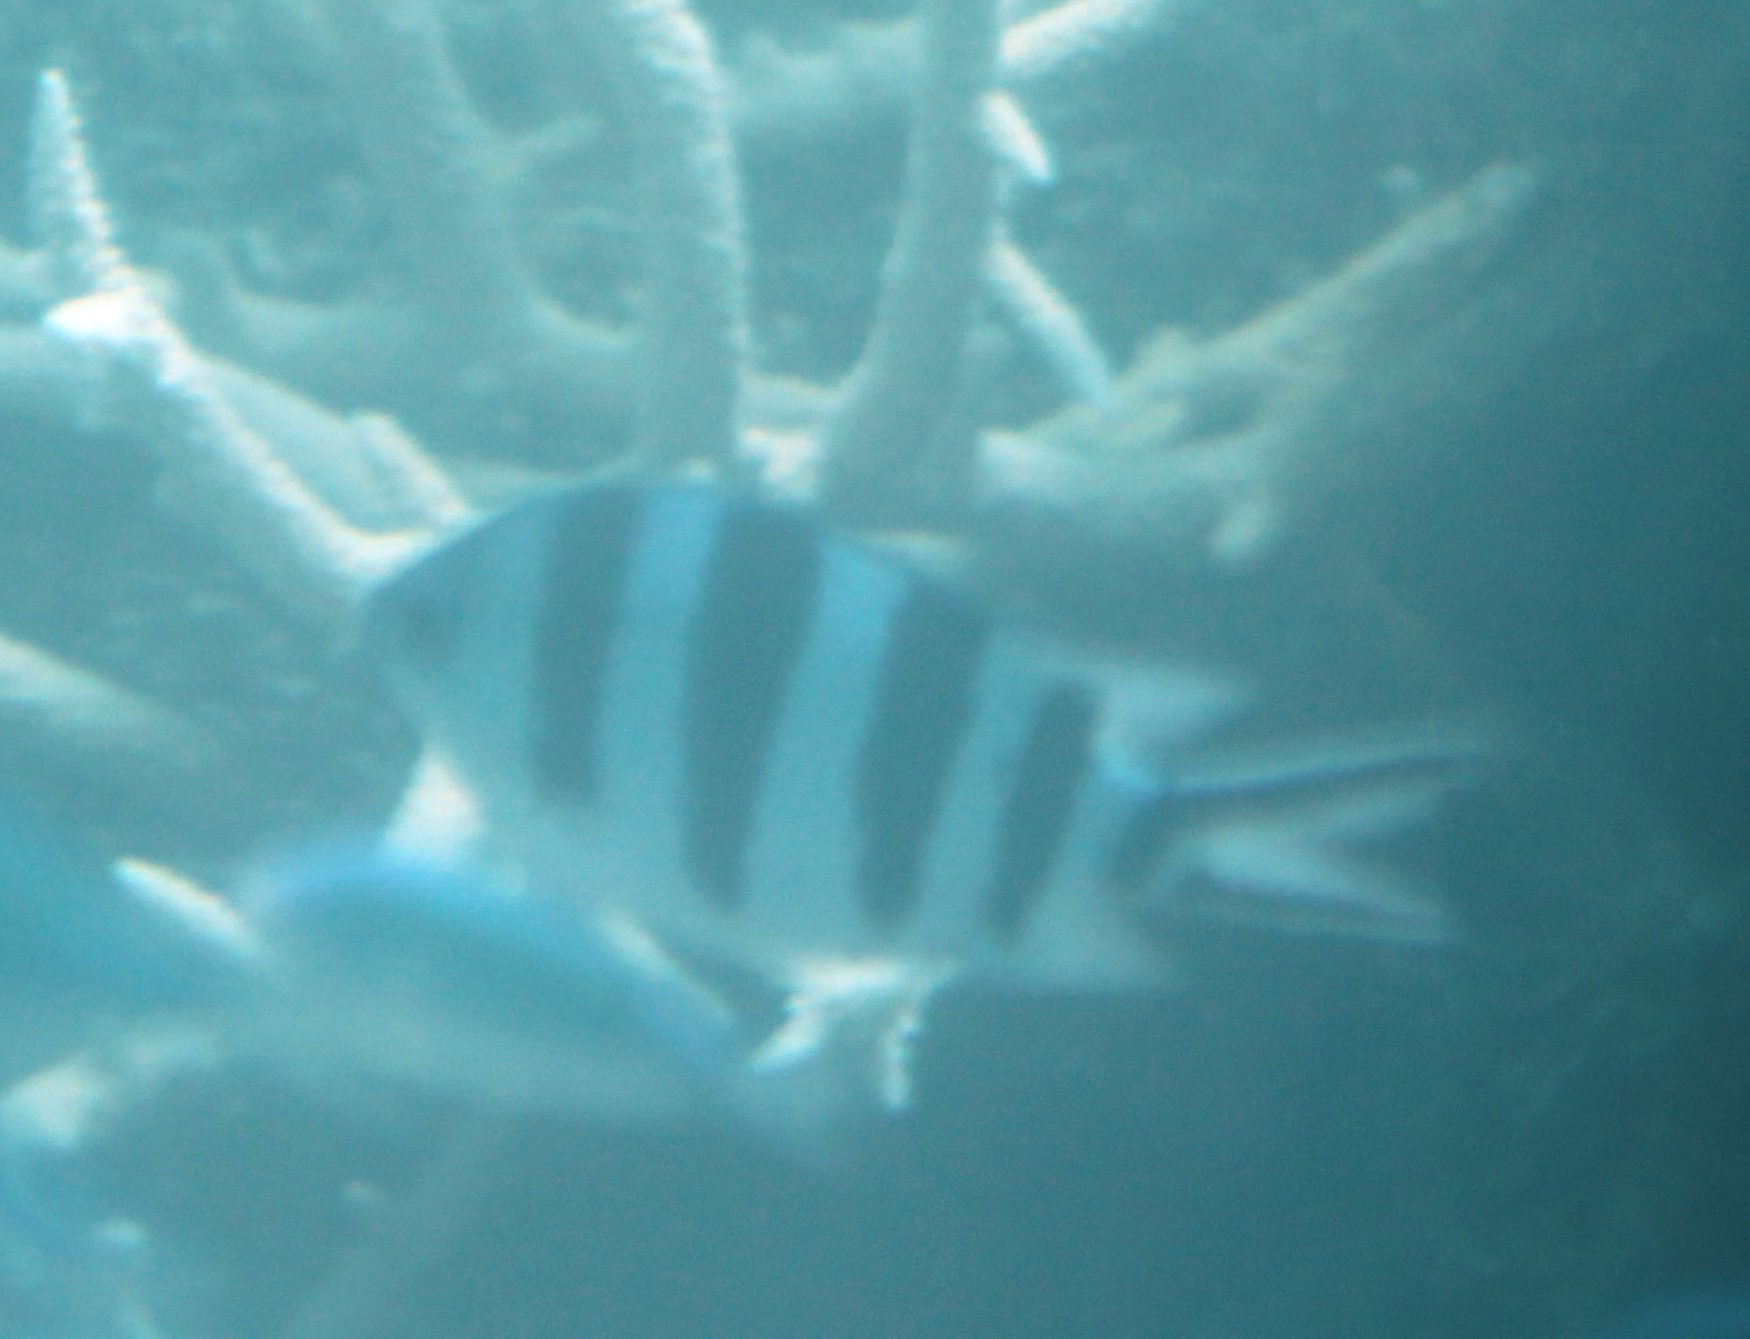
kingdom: Animalia
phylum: Chordata
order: Perciformes
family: Pomacentridae
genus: Abudefduf
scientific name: Abudefduf sexfasciatus
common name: Scissortail sergeant
